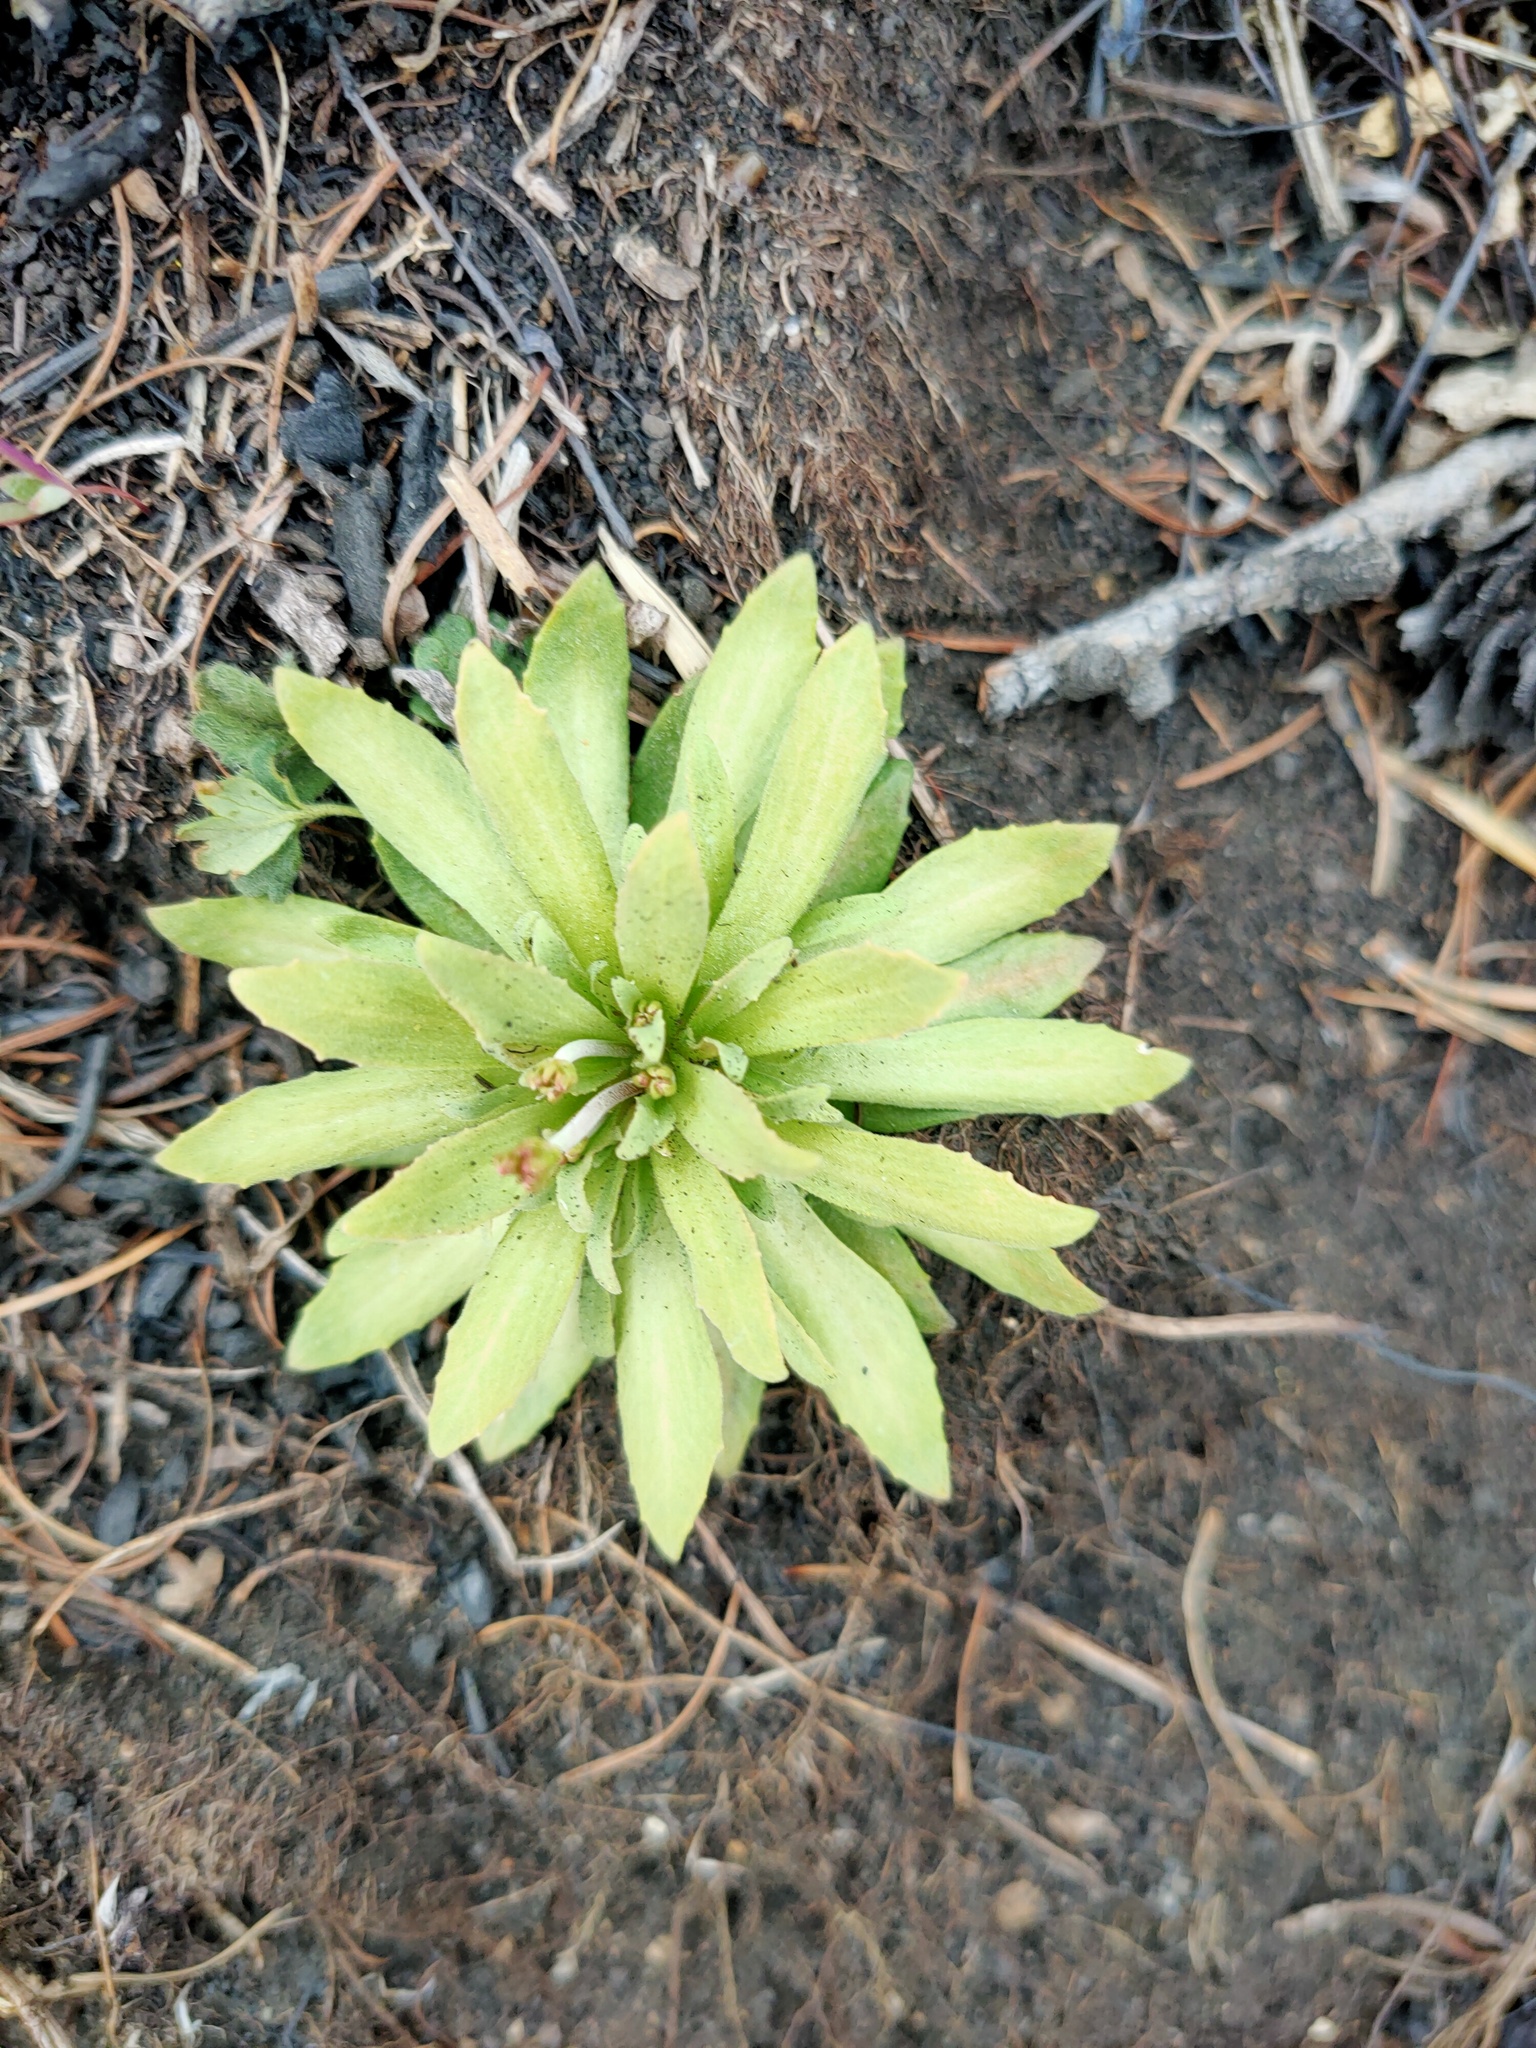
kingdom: Plantae
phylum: Tracheophyta
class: Magnoliopsida
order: Ericales
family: Primulaceae
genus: Androsace
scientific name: Androsace septentrionalis
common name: Hairy northern fairy-candelabra
